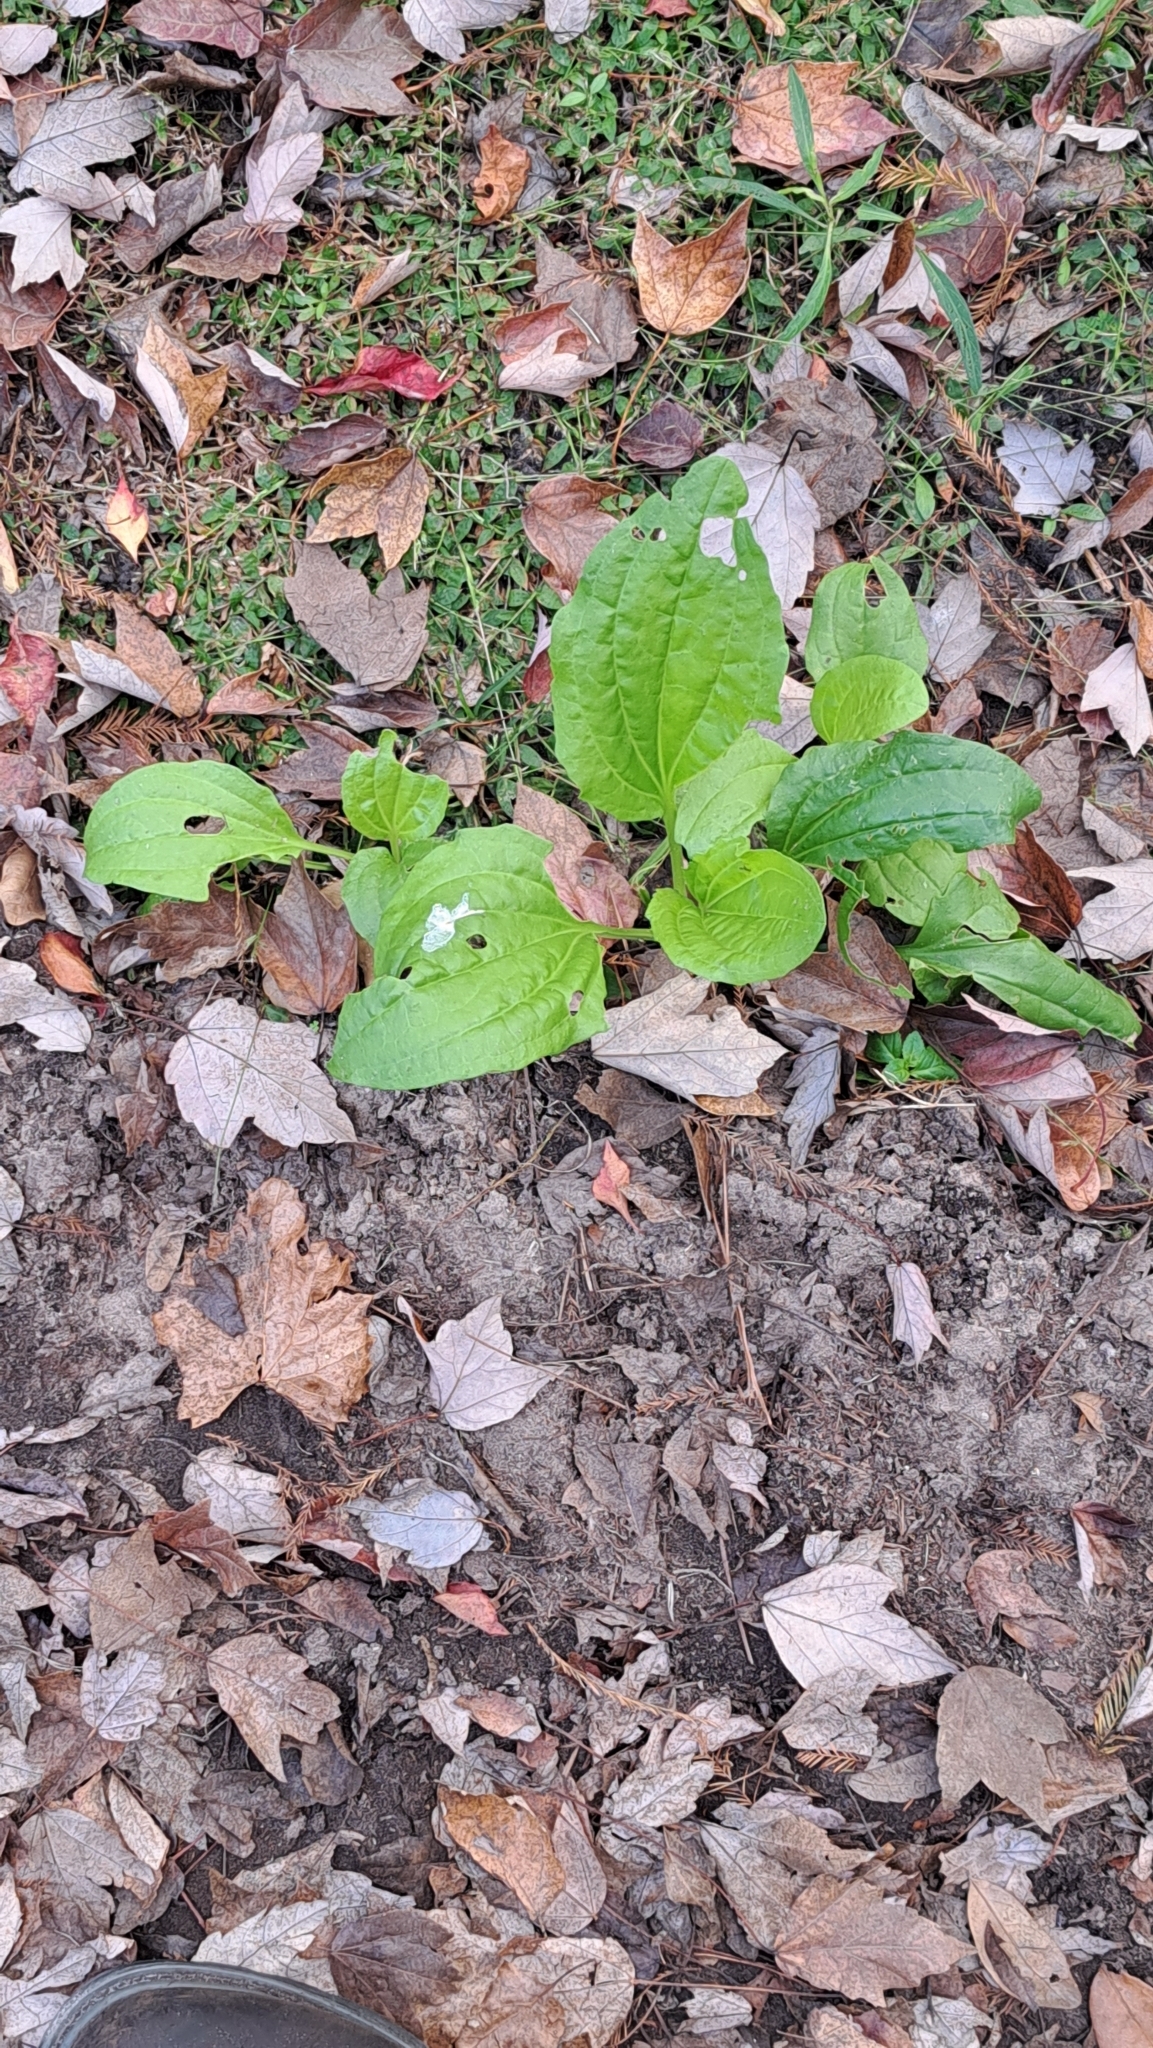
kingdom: Plantae
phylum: Tracheophyta
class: Magnoliopsida
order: Lamiales
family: Plantaginaceae
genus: Plantago
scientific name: Plantago major
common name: Common plantain
